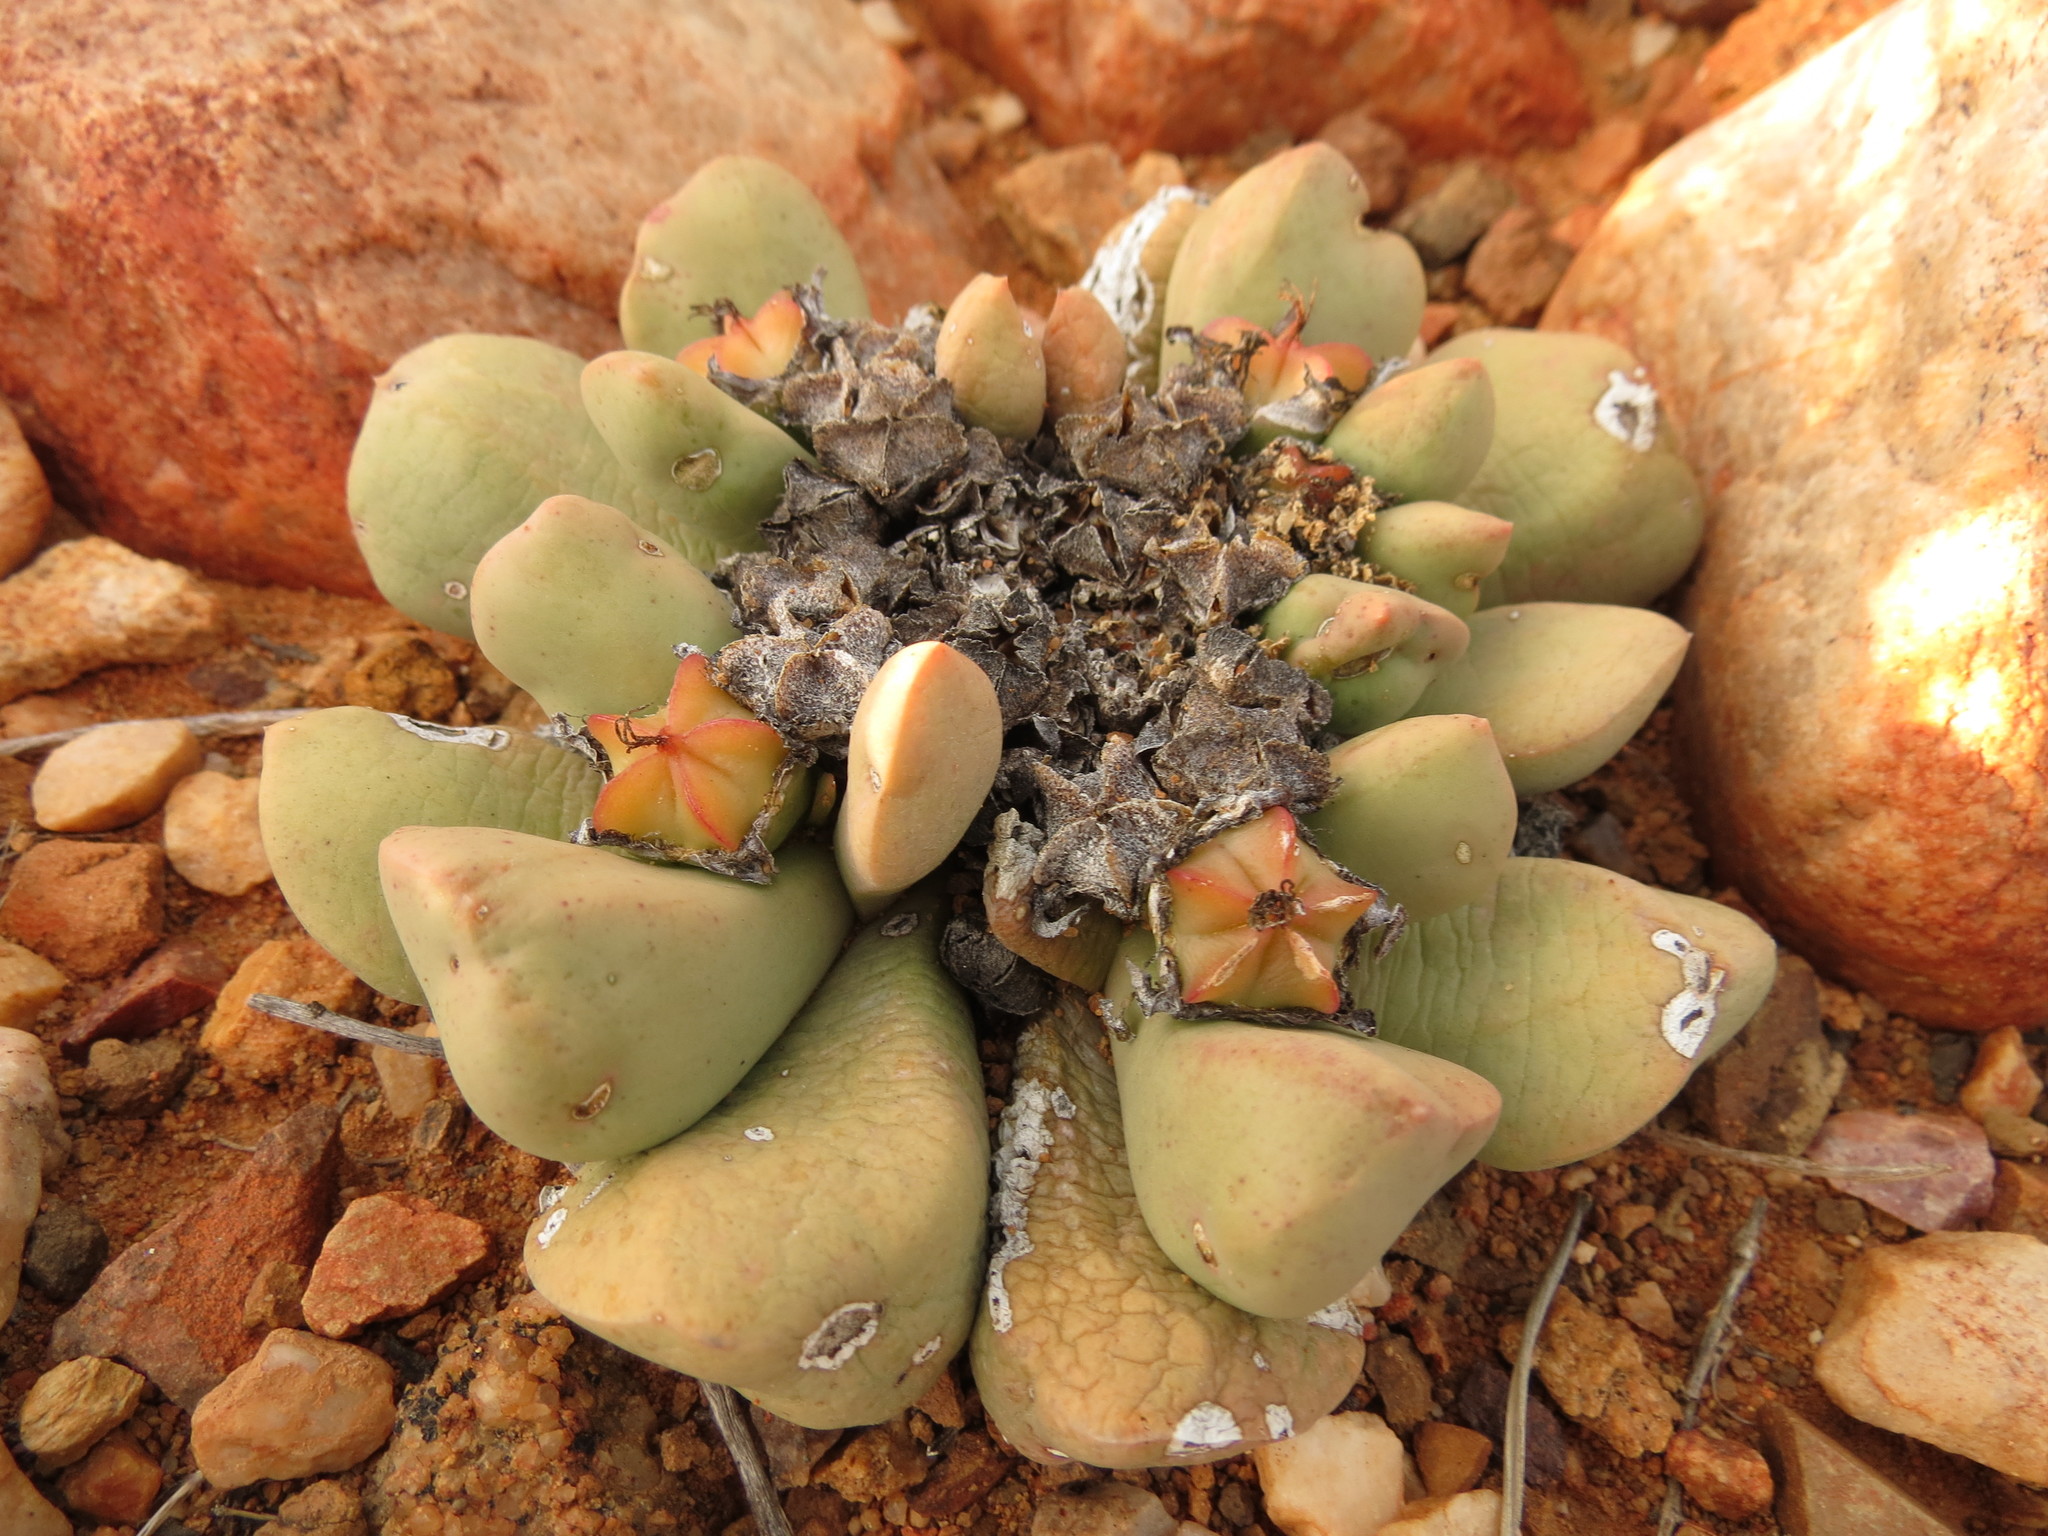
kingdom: Plantae
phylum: Tracheophyta
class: Magnoliopsida
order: Caryophyllales
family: Aizoaceae
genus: Bijlia
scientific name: Bijlia dilatata
